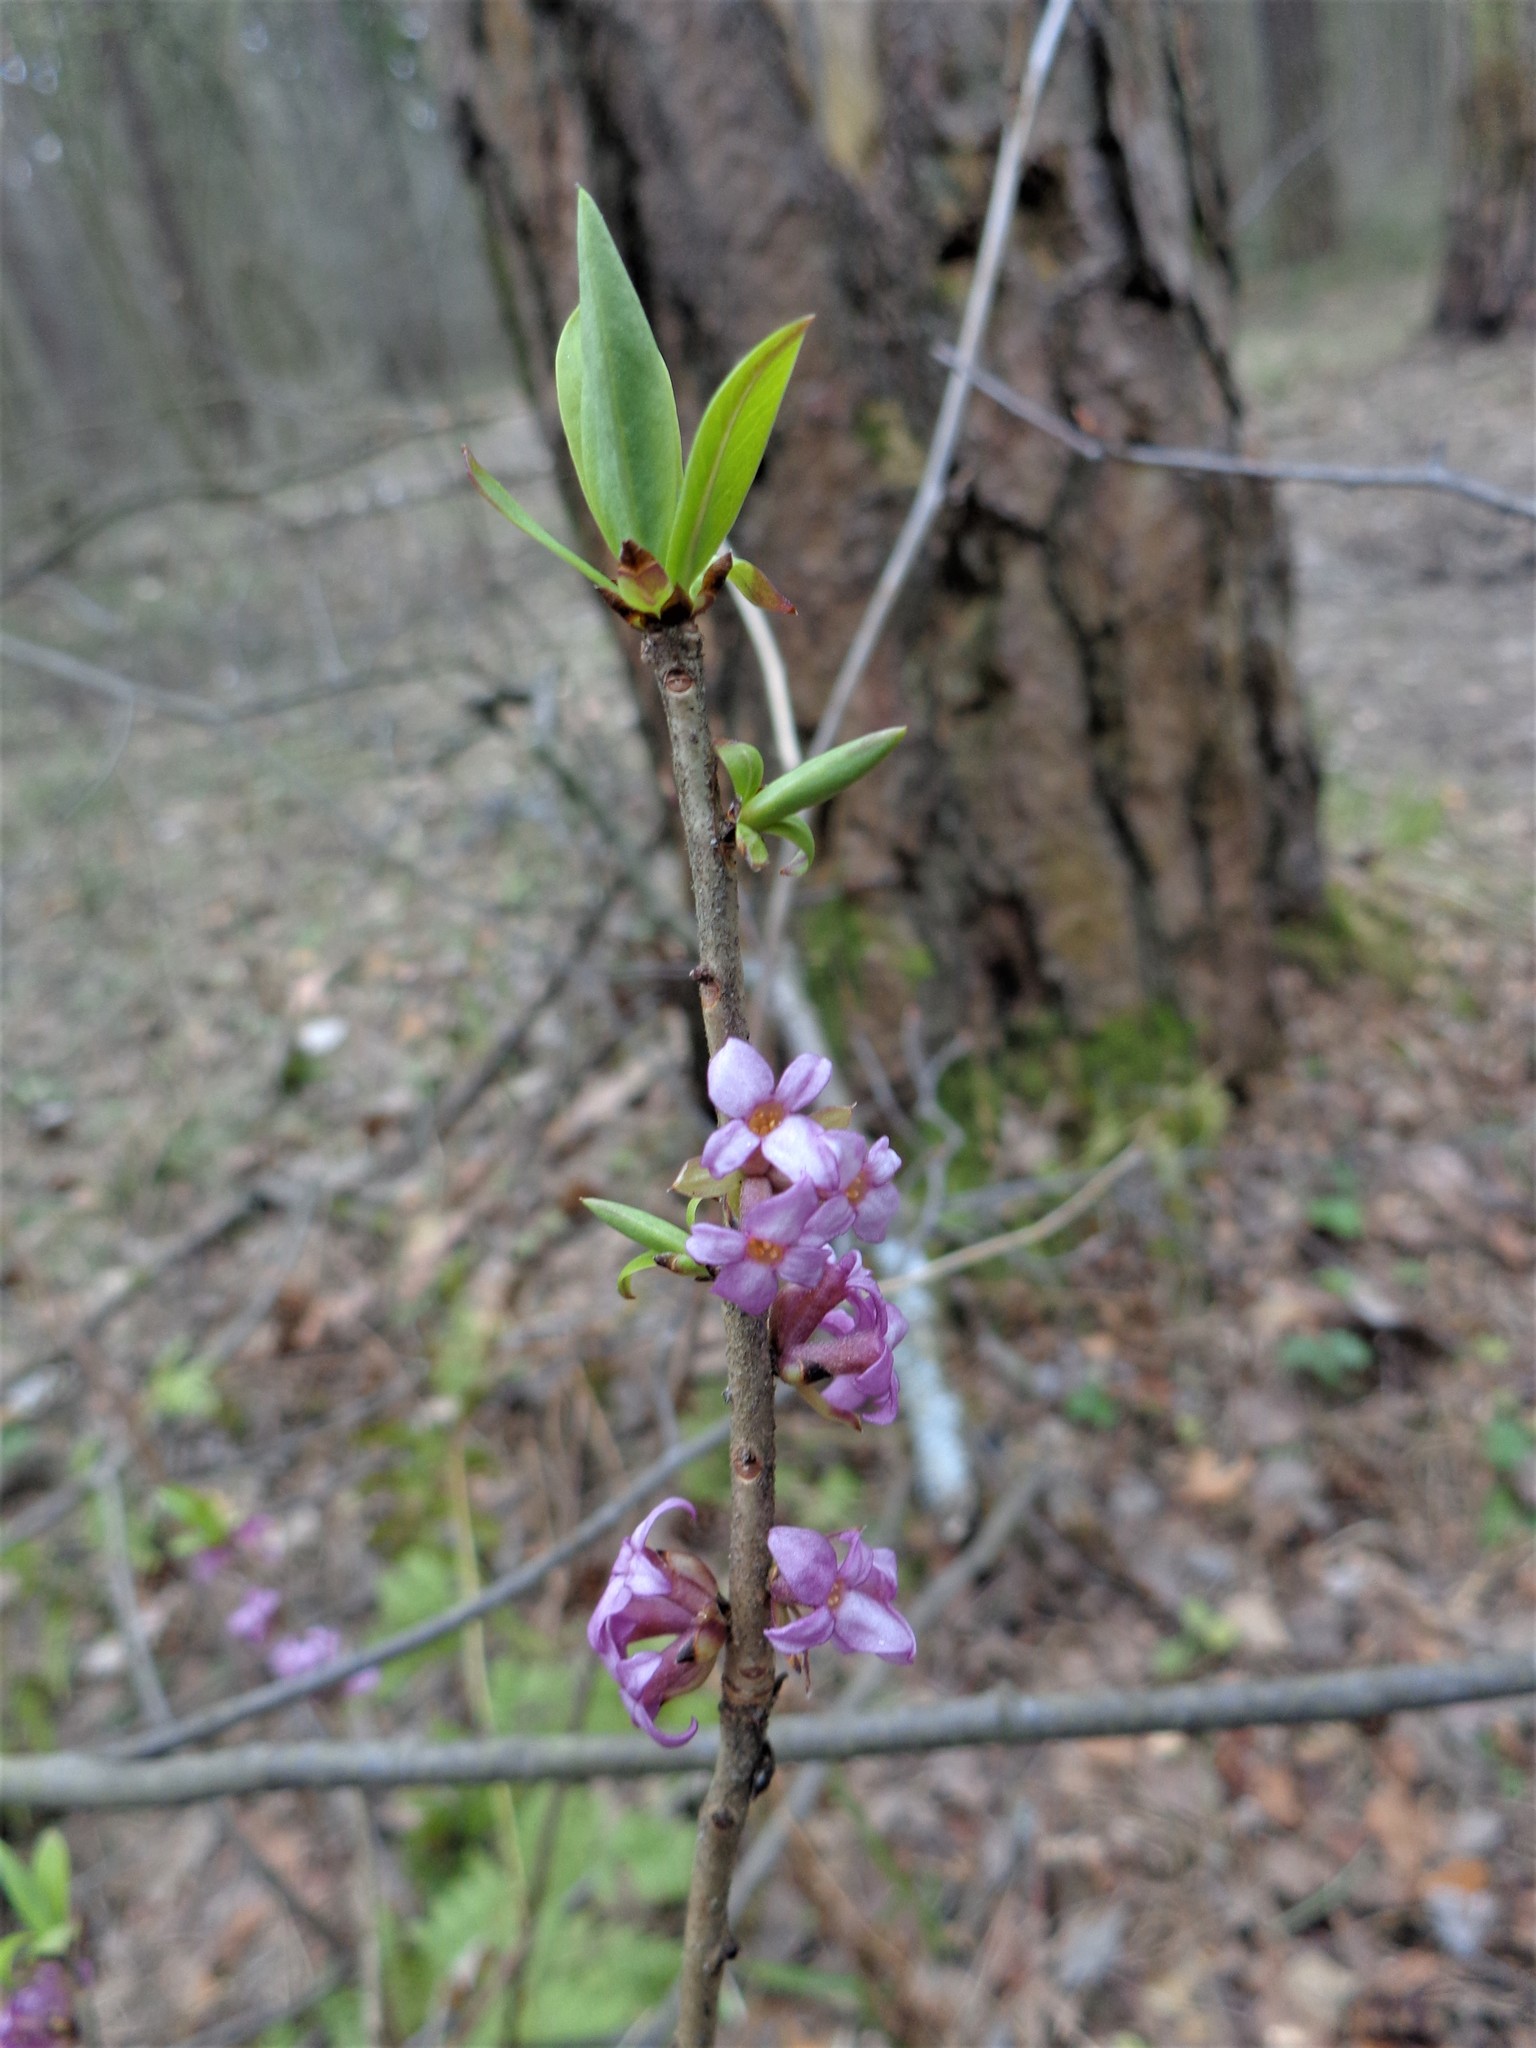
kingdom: Plantae
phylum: Tracheophyta
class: Magnoliopsida
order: Malvales
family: Thymelaeaceae
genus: Daphne
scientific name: Daphne mezereum
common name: Mezereon
